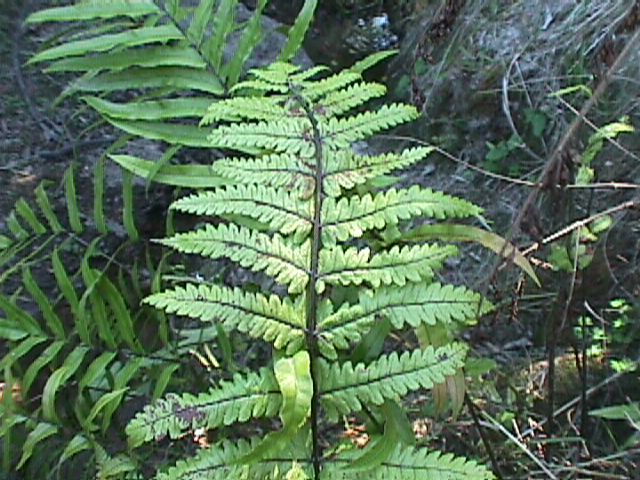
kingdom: Plantae
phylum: Tracheophyta
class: Polypodiopsida
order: Polypodiales
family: Thelypteridaceae
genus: Pakau
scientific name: Pakau pennigera
